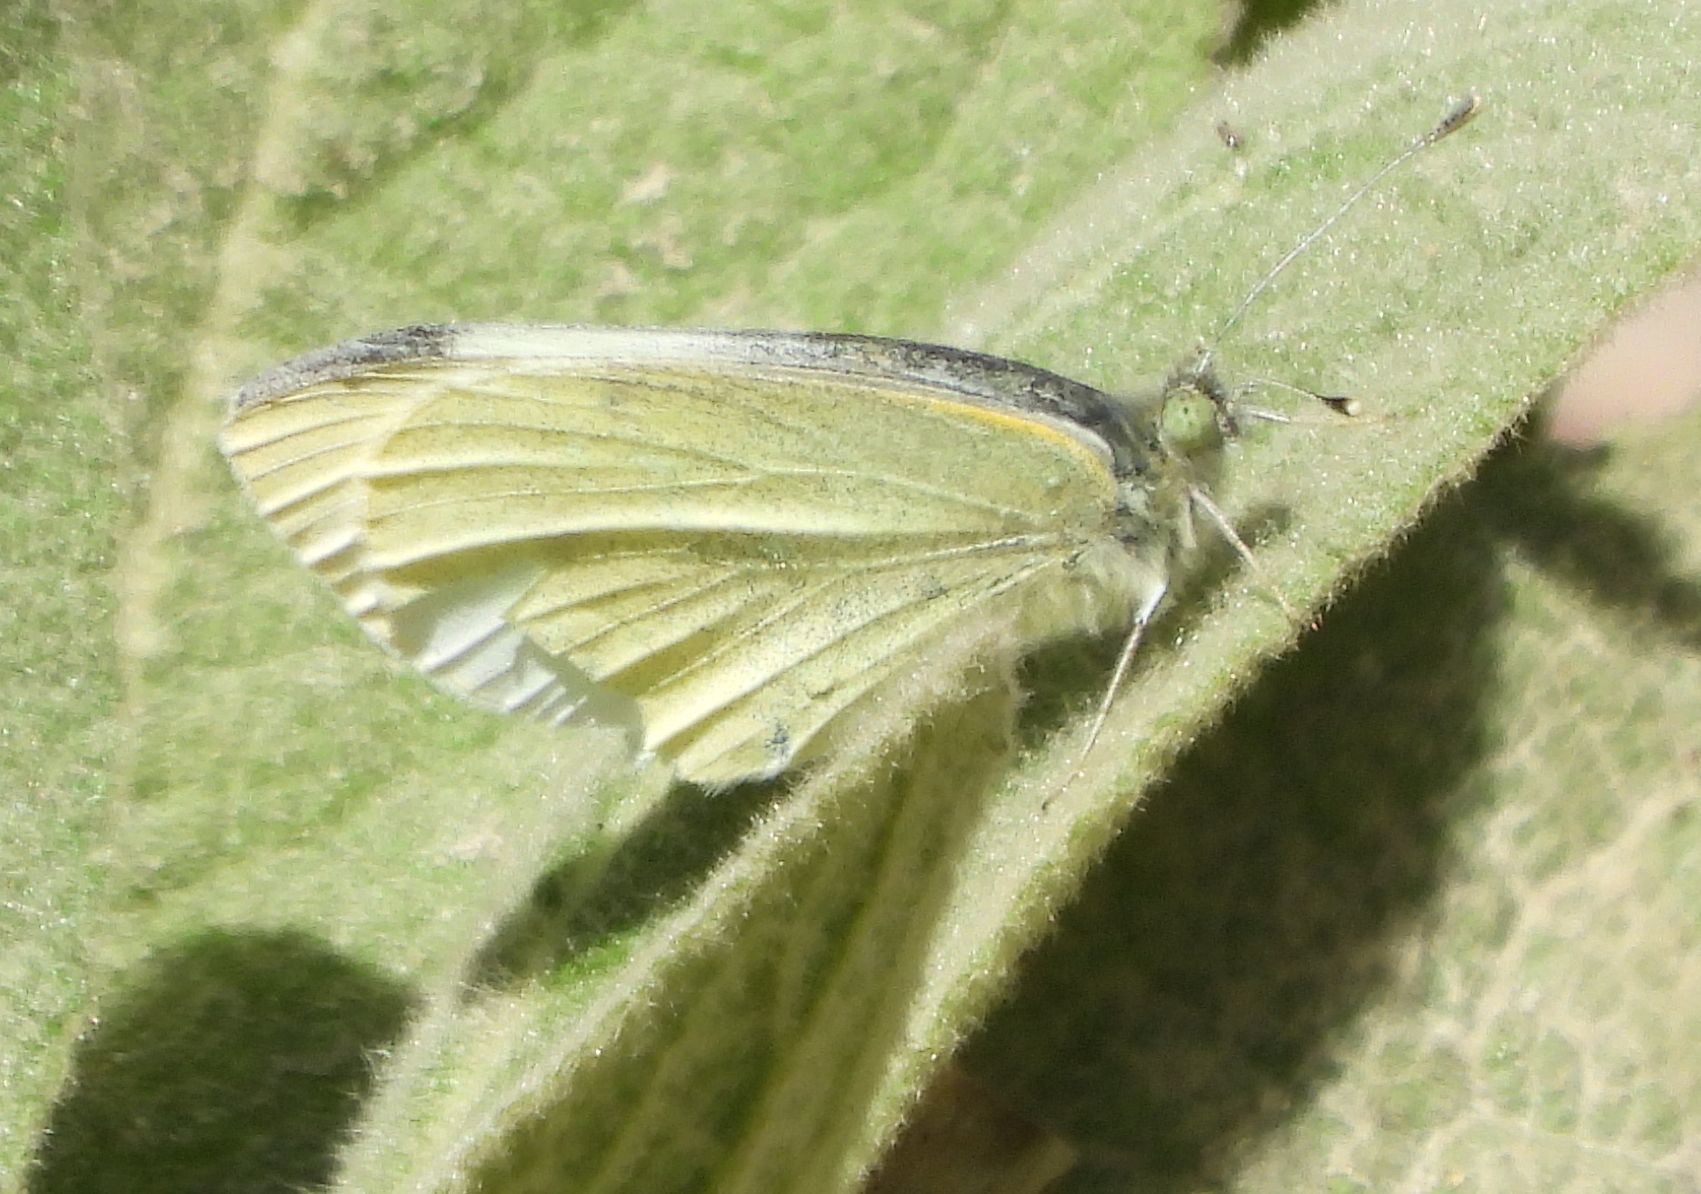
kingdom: Animalia
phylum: Arthropoda
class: Insecta
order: Lepidoptera
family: Pieridae
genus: Pieris
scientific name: Pieris rapae
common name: Small white
